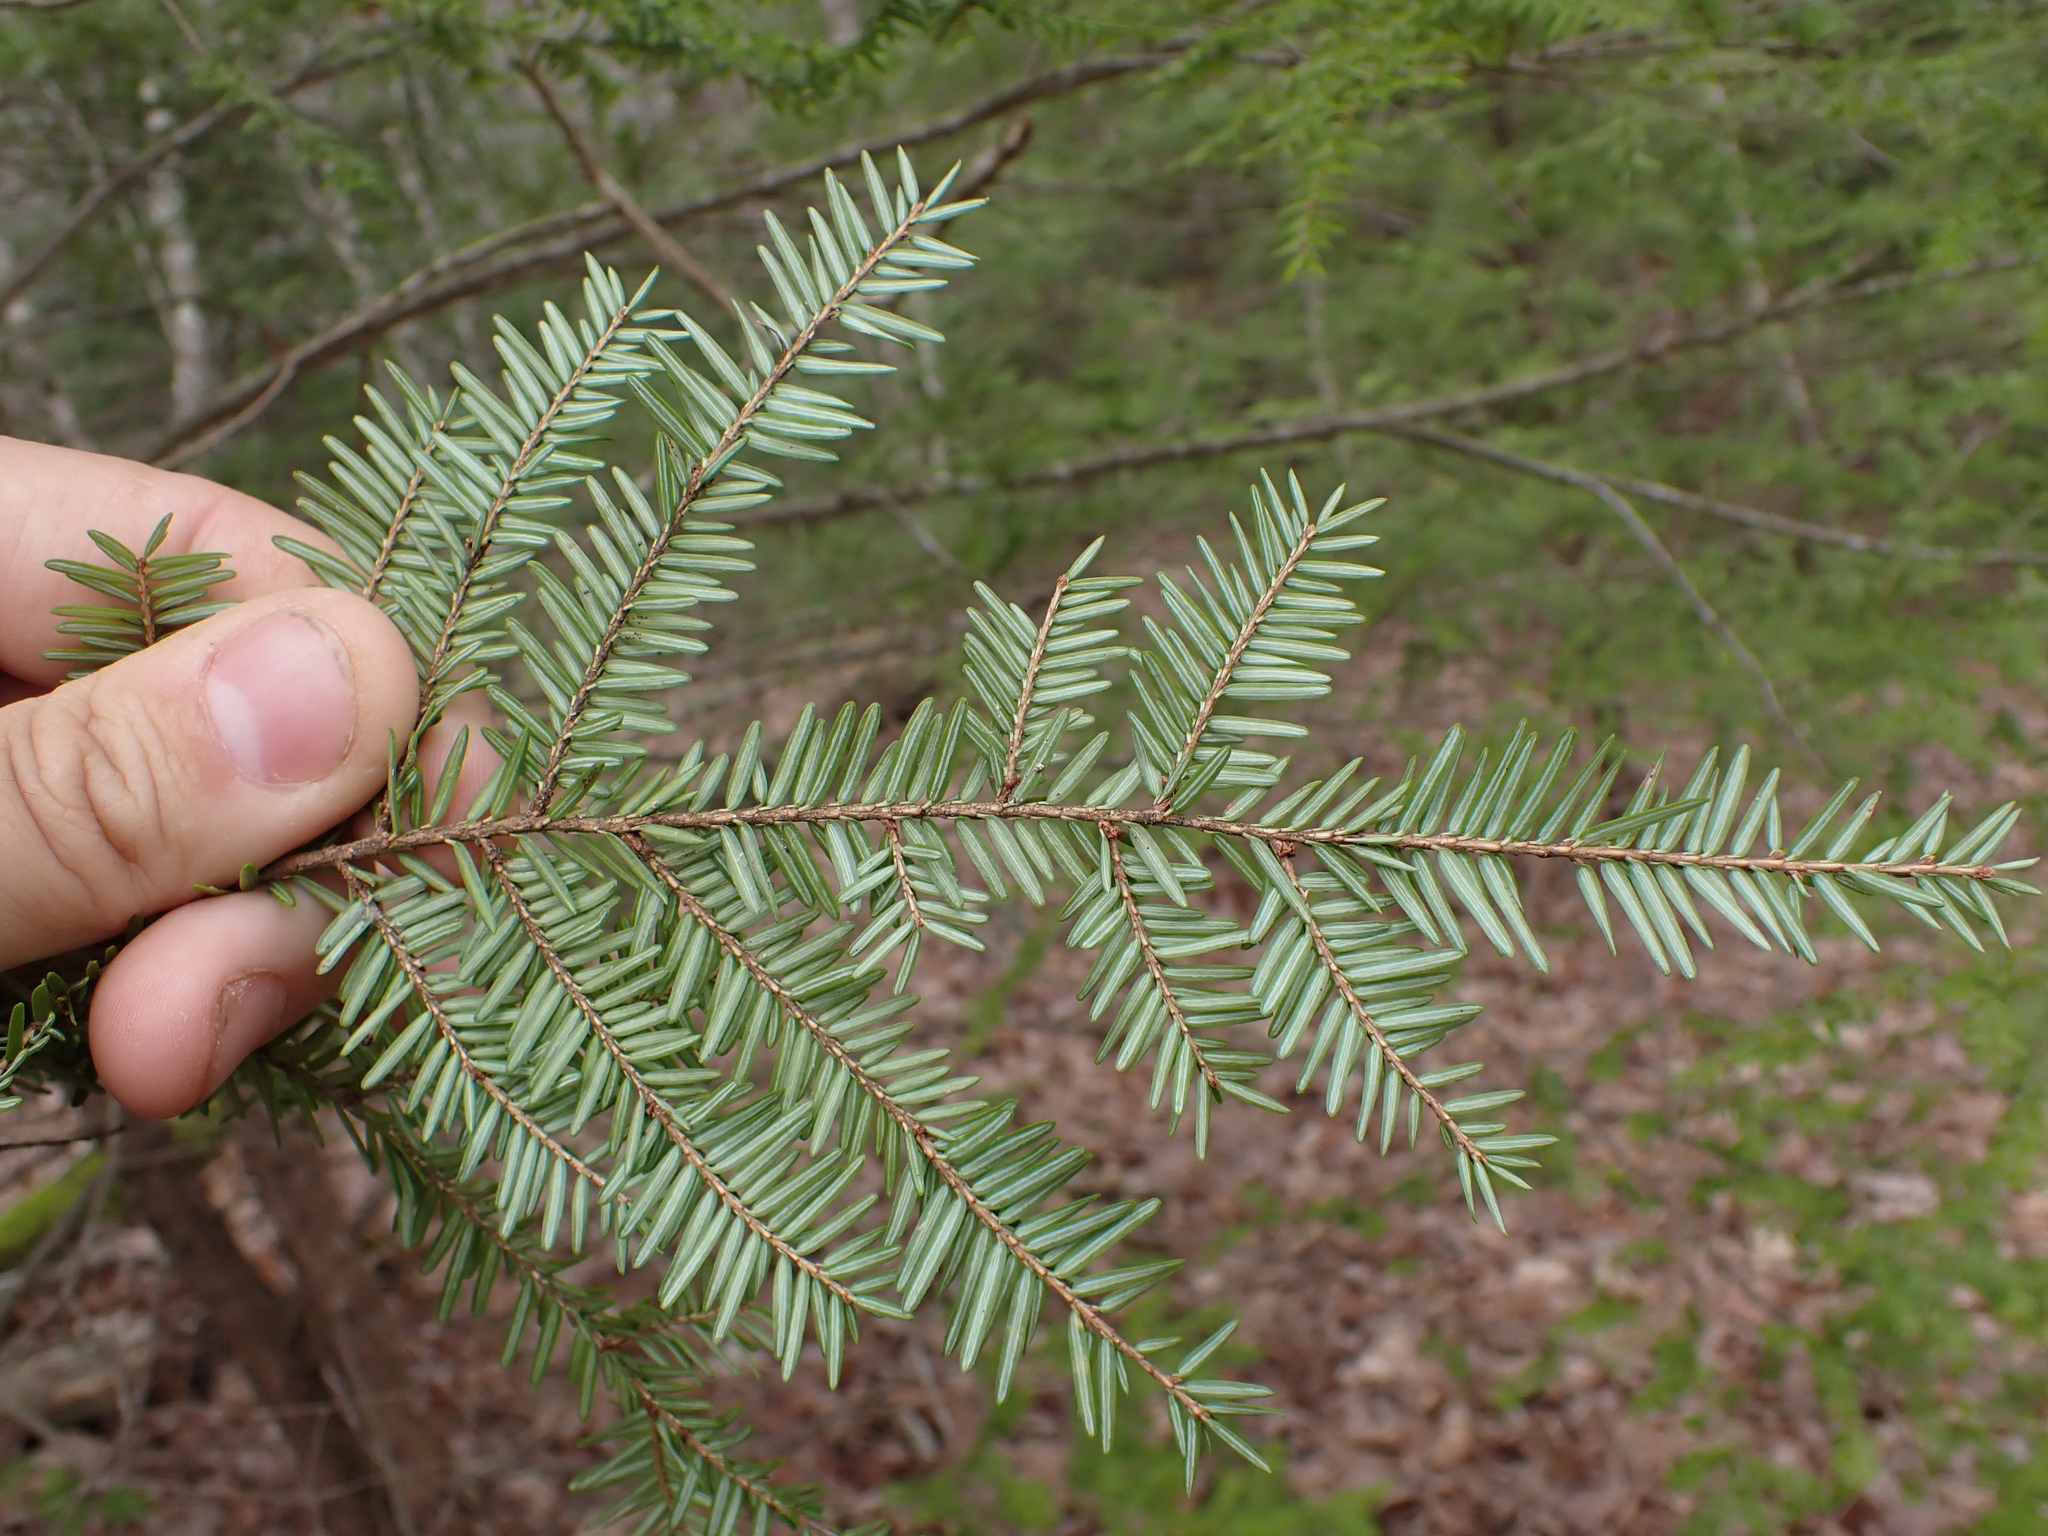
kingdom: Plantae
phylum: Tracheophyta
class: Pinopsida
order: Pinales
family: Pinaceae
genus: Tsuga
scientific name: Tsuga canadensis
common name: Eastern hemlock
